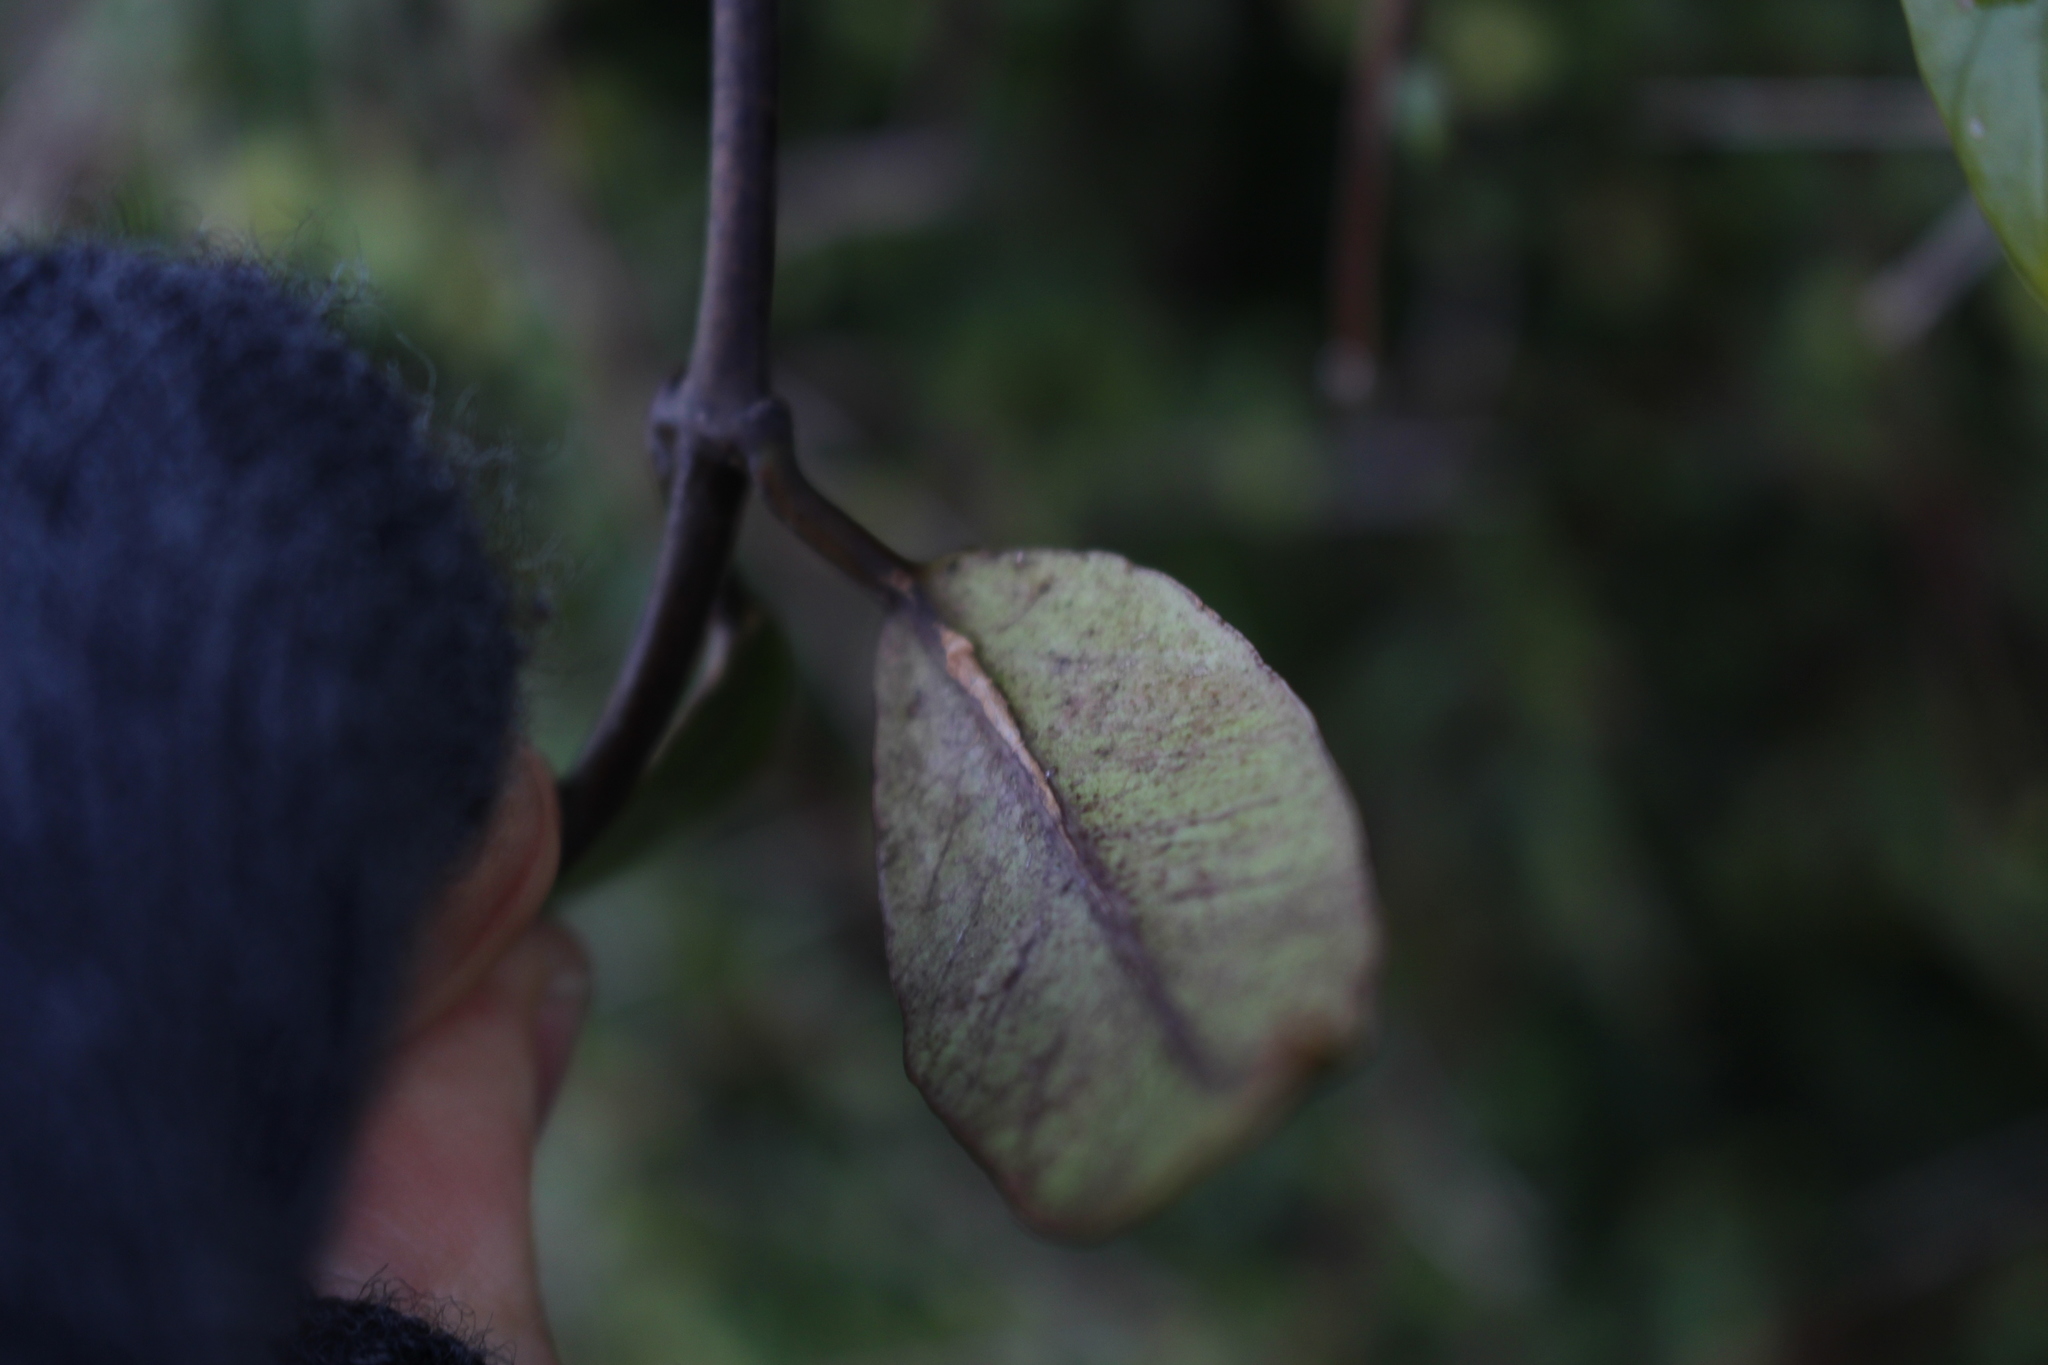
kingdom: Plantae
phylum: Tracheophyta
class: Magnoliopsida
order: Gentianales
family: Apocynaceae
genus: Parsonsia
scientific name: Parsonsia heterophylla
